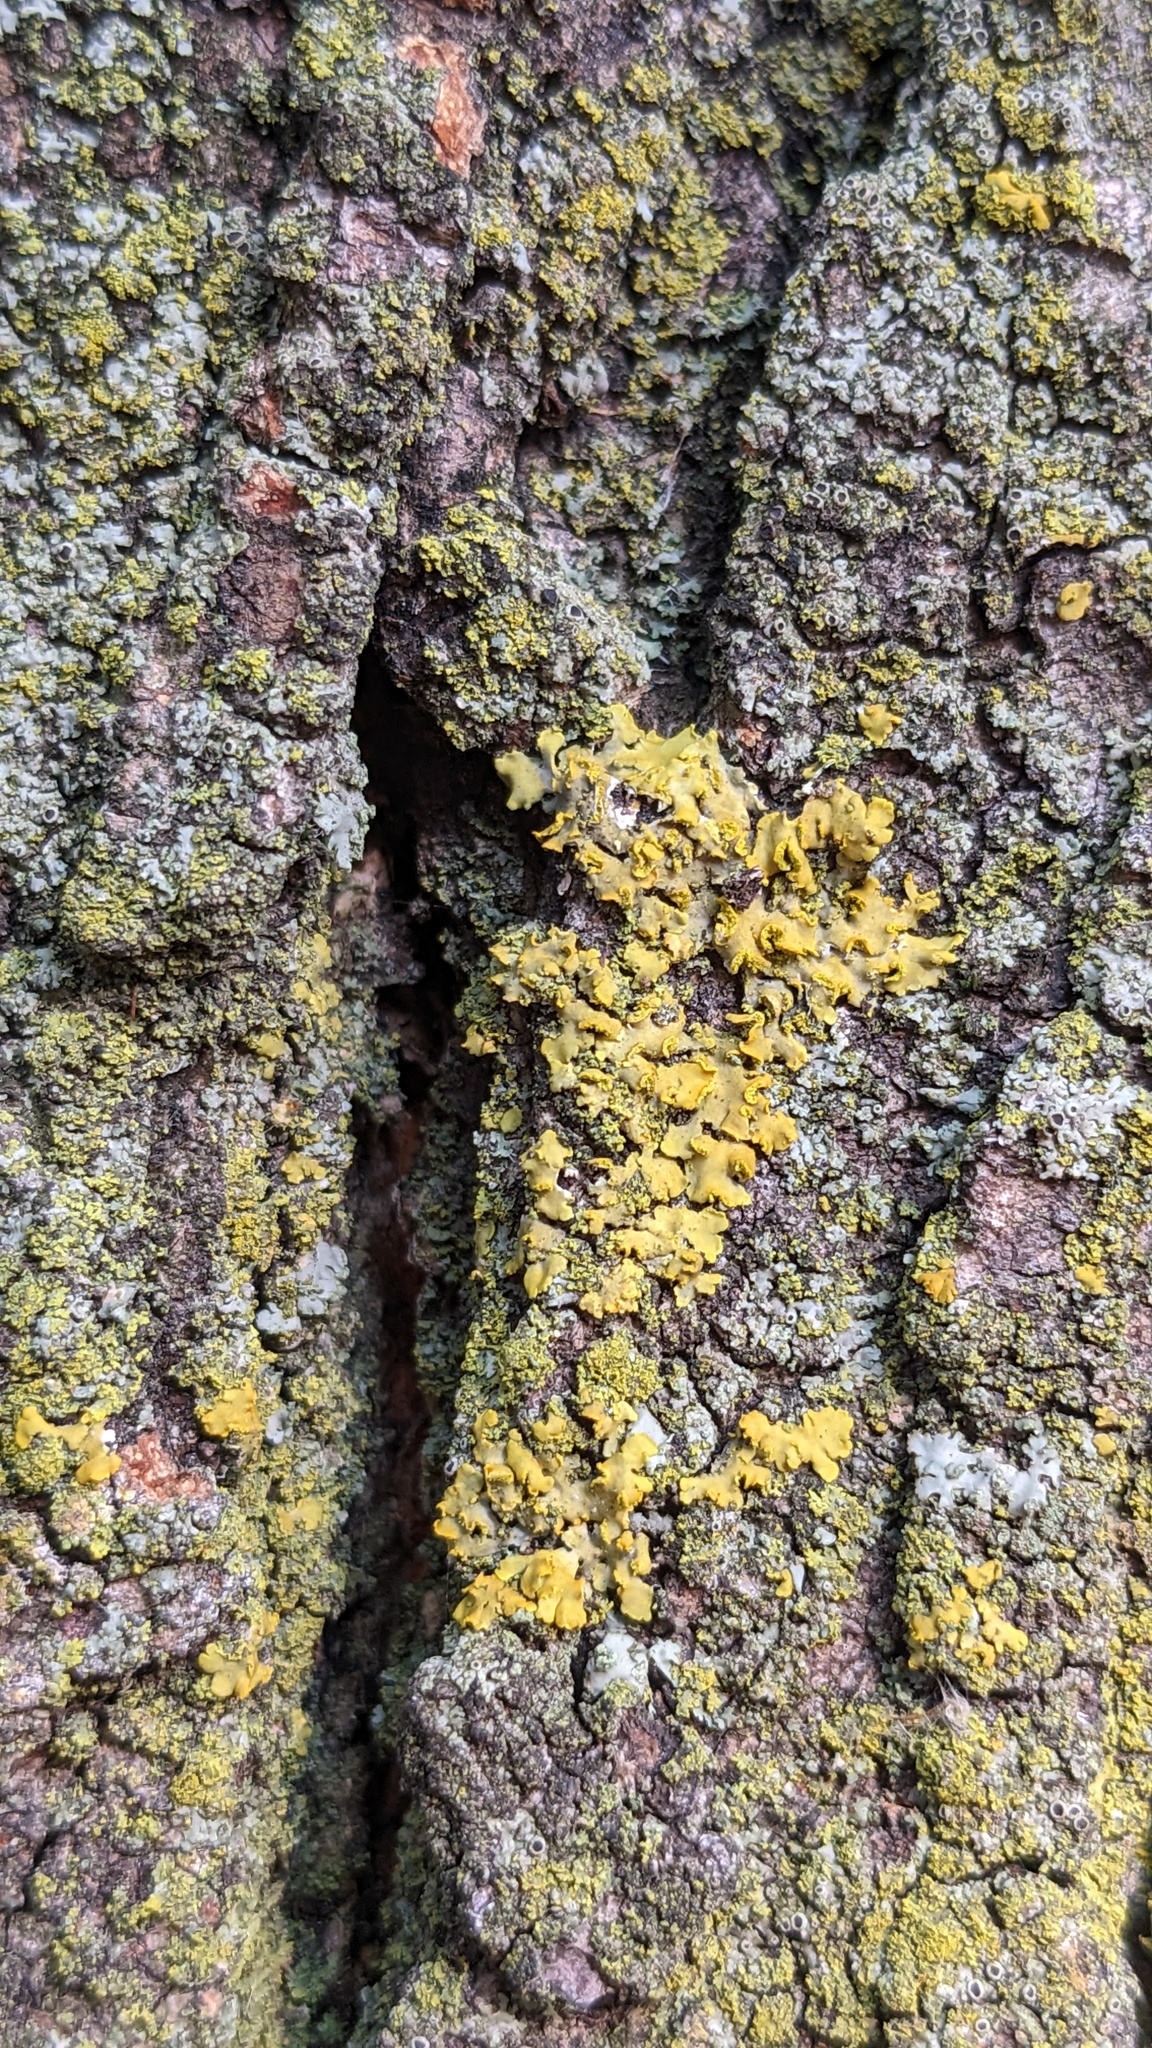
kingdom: Fungi
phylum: Ascomycota
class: Lecanoromycetes
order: Teloschistales
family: Teloschistaceae
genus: Oxneria
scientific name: Oxneria fallax
